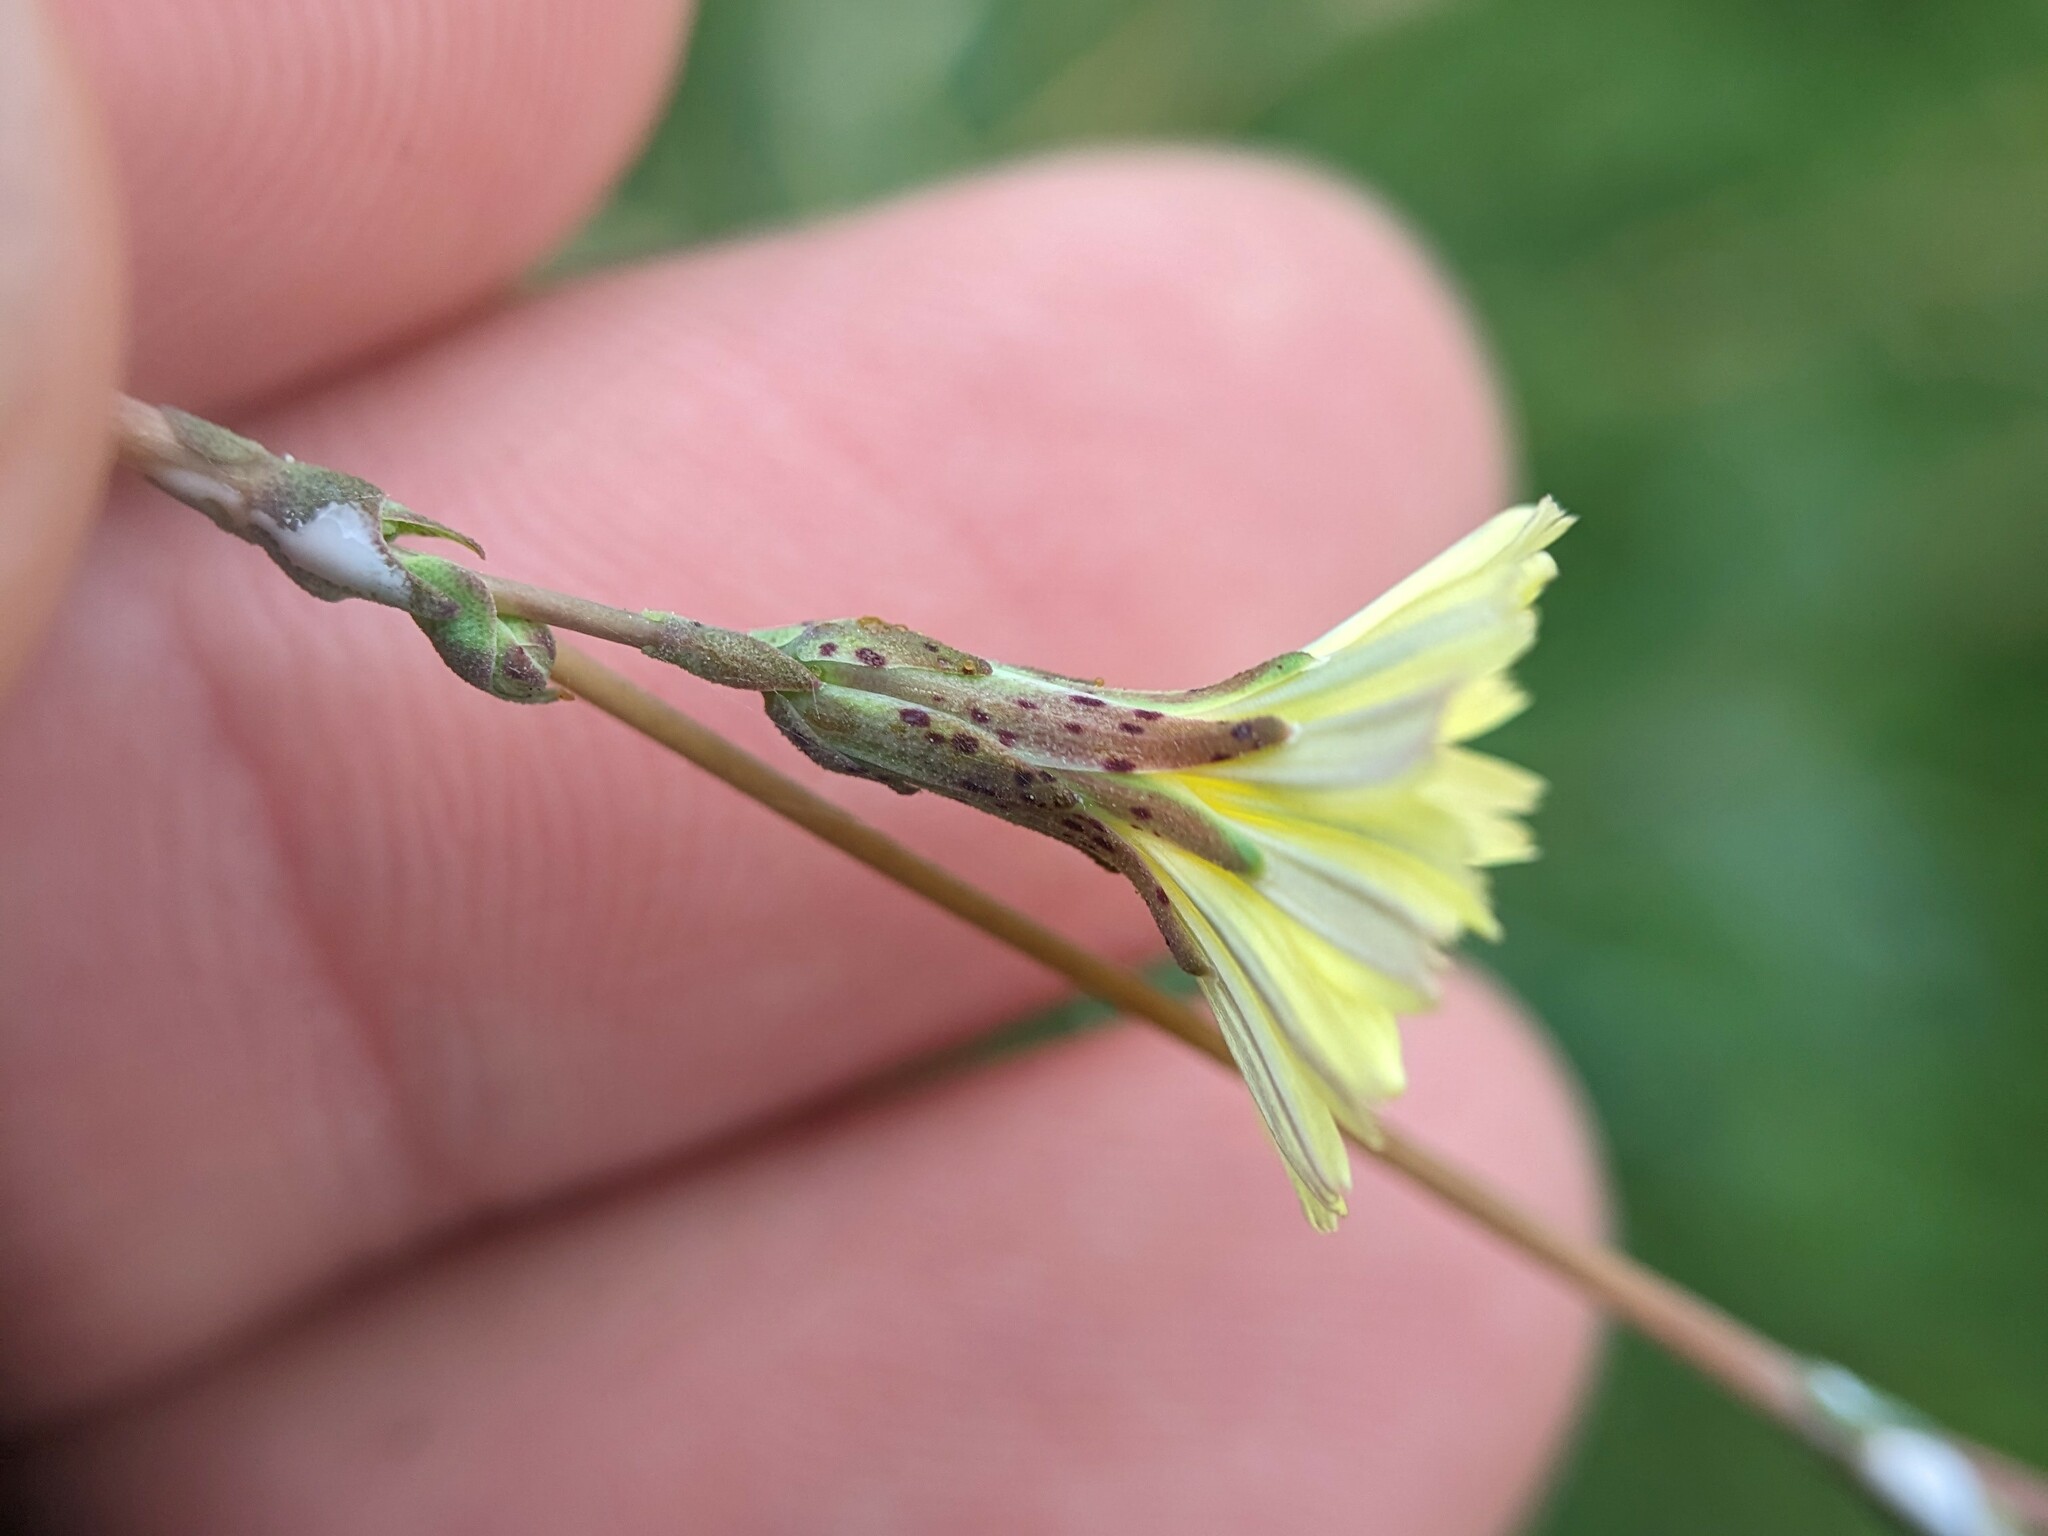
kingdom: Plantae
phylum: Tracheophyta
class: Magnoliopsida
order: Asterales
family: Asteraceae
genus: Lactuca
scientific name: Lactuca serriola
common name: Prickly lettuce
